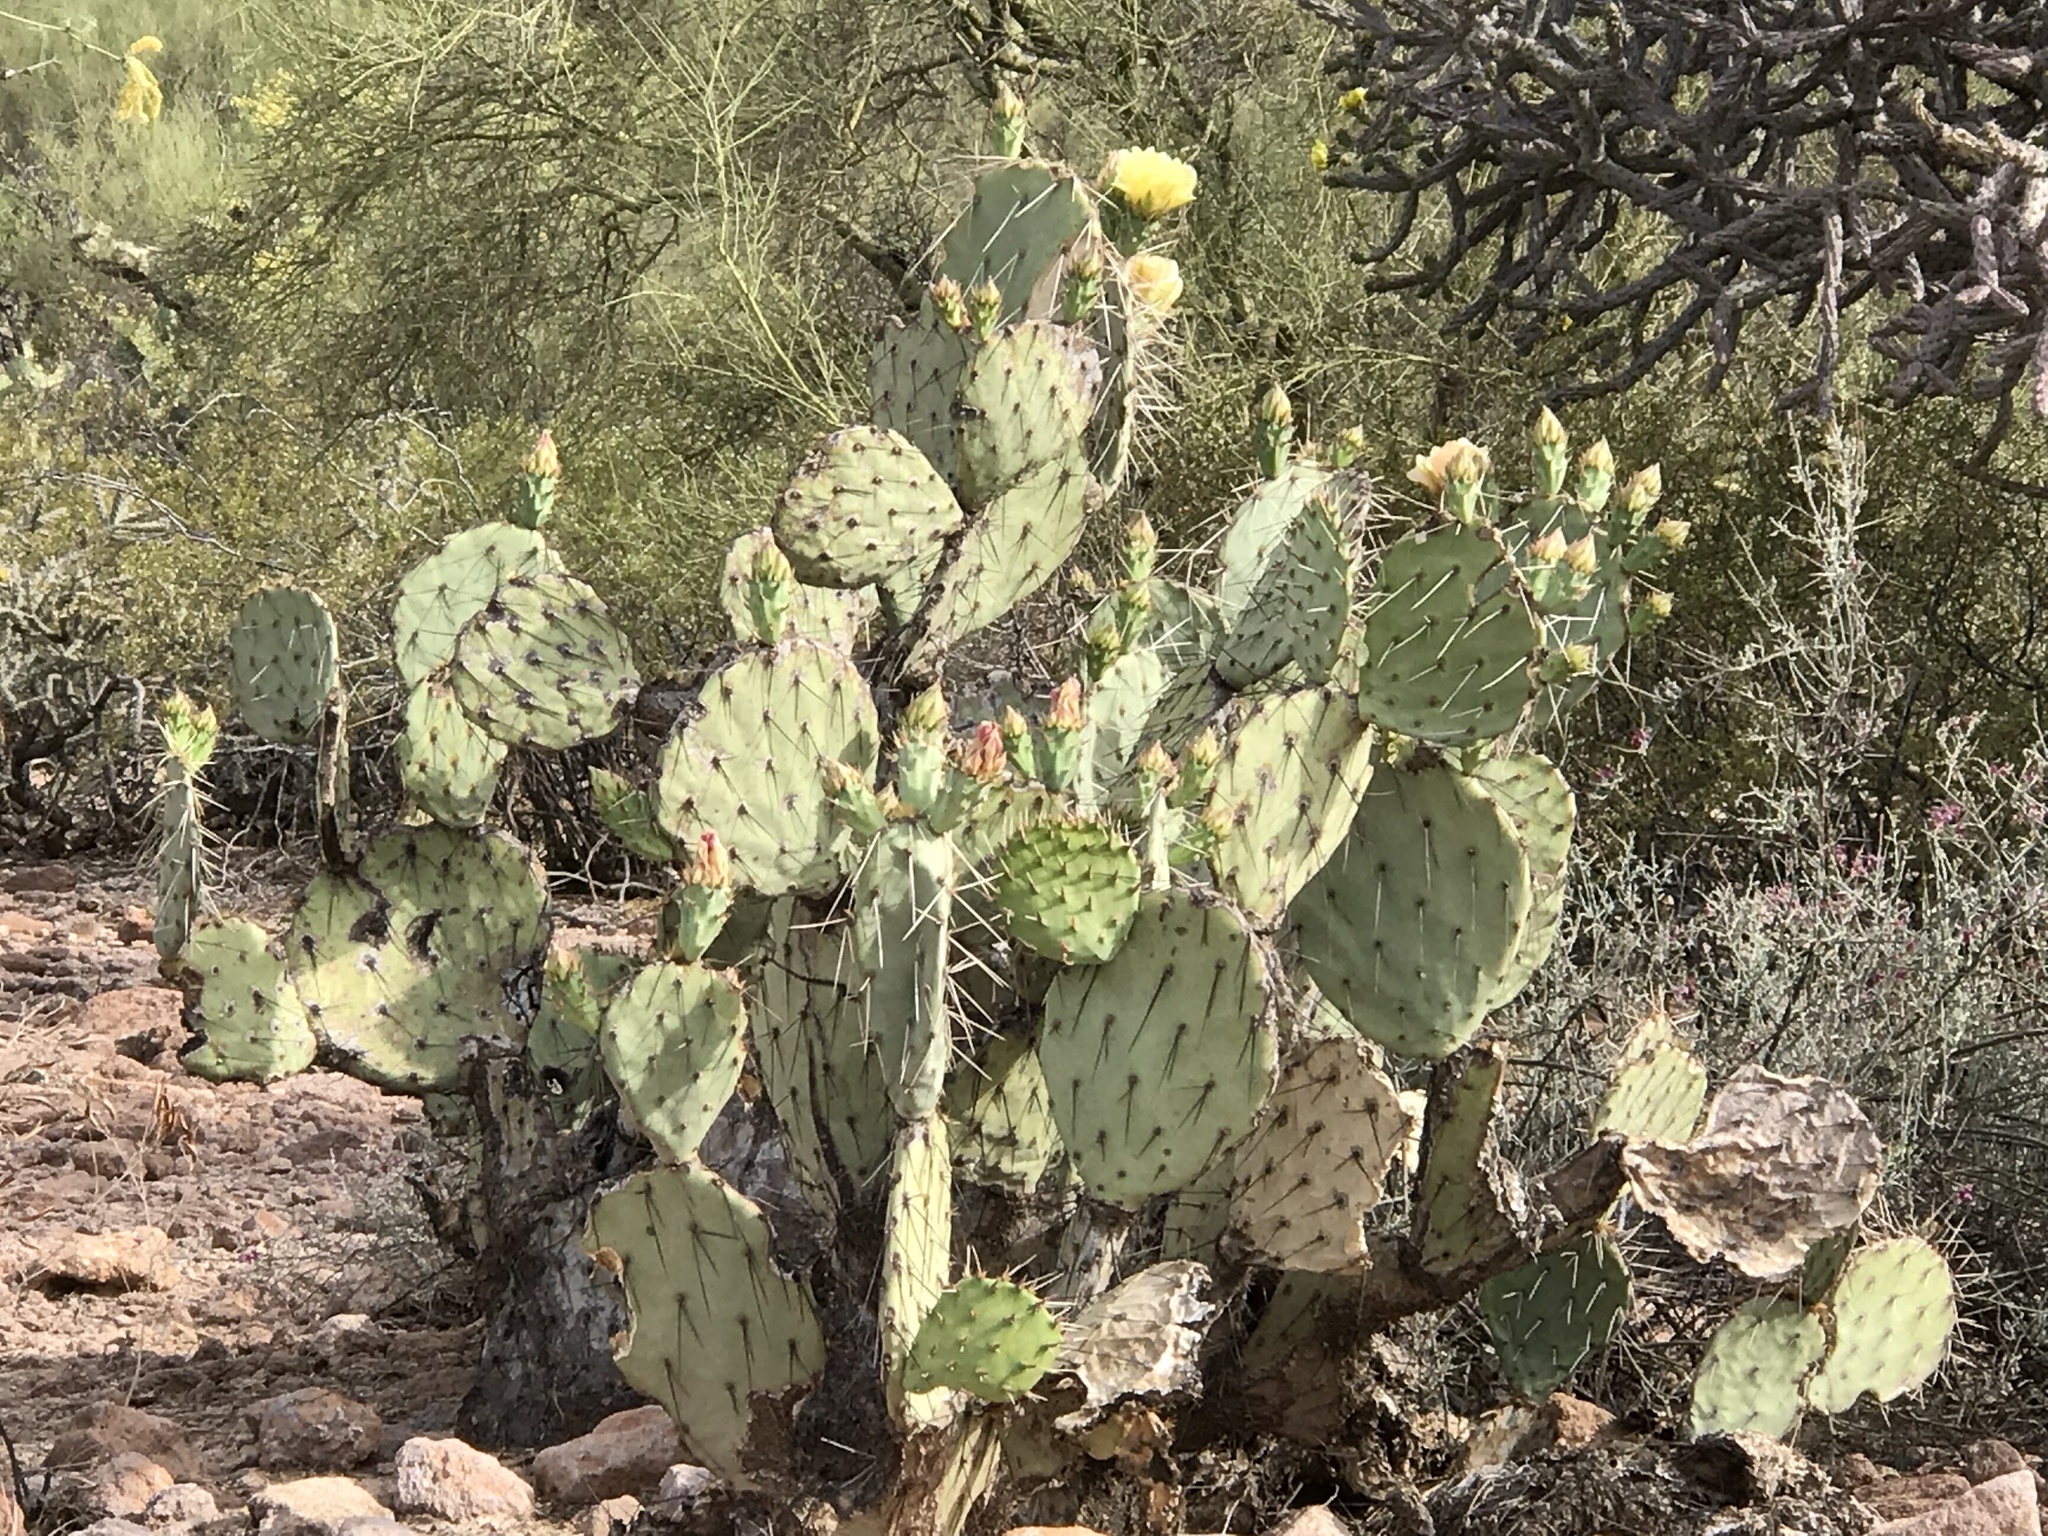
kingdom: Plantae
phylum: Tracheophyta
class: Magnoliopsida
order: Caryophyllales
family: Cactaceae
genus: Opuntia
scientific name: Opuntia engelmannii
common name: Cactus-apple
